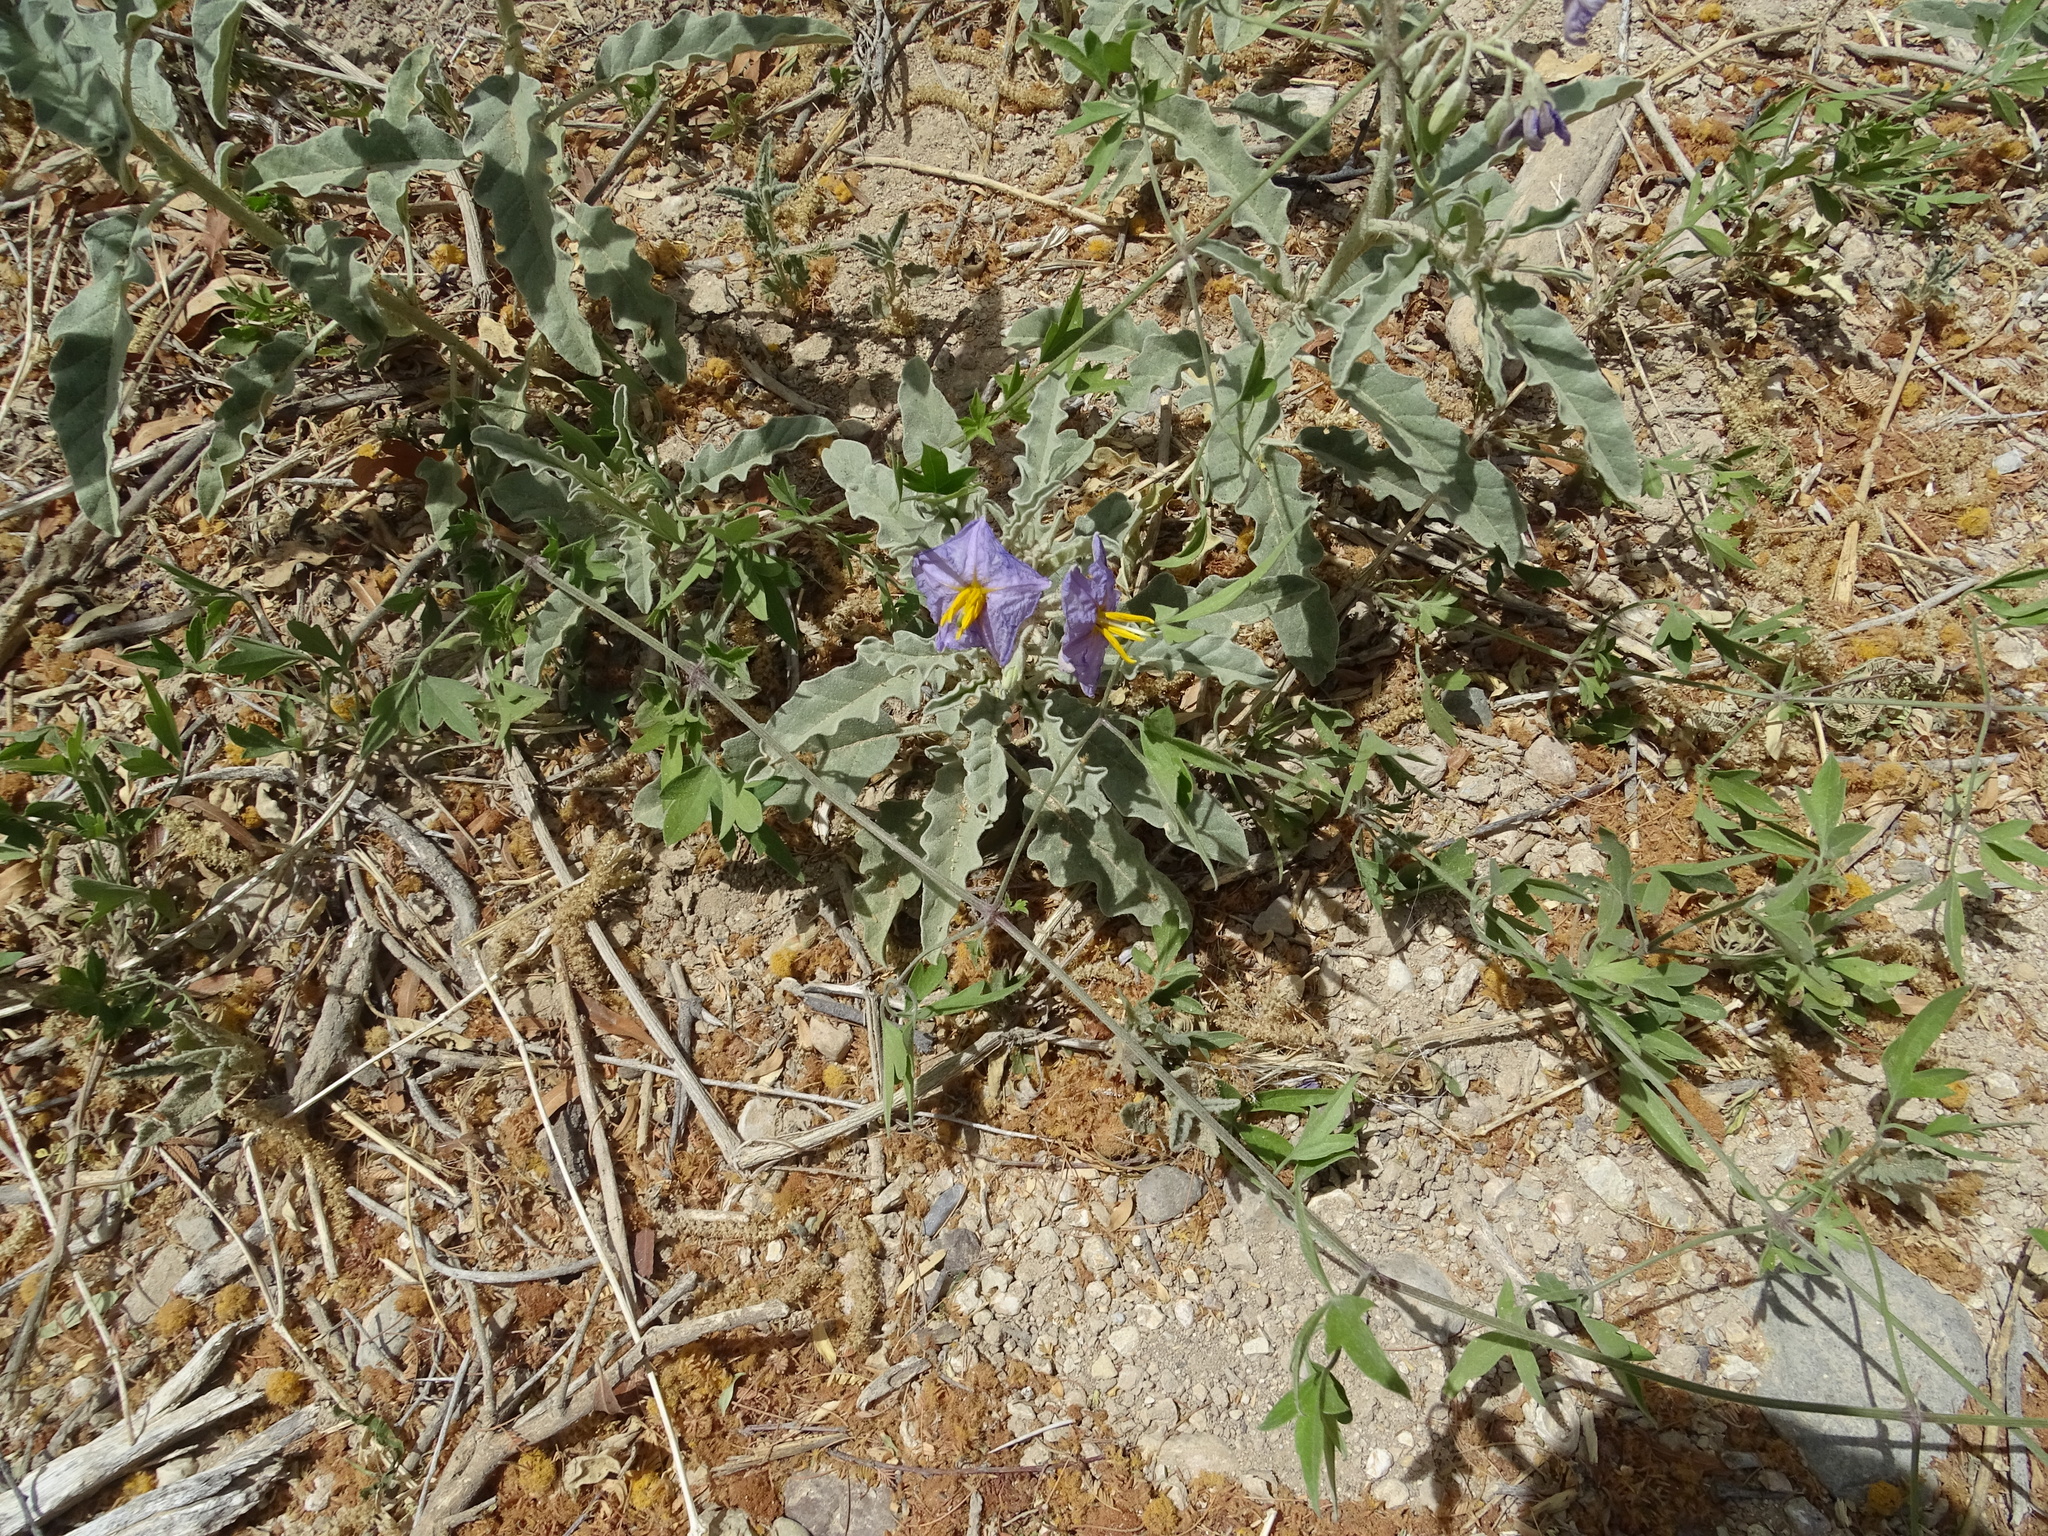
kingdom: Plantae
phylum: Tracheophyta
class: Magnoliopsida
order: Solanales
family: Solanaceae
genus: Solanum
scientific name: Solanum elaeagnifolium
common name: Silverleaf nightshade
